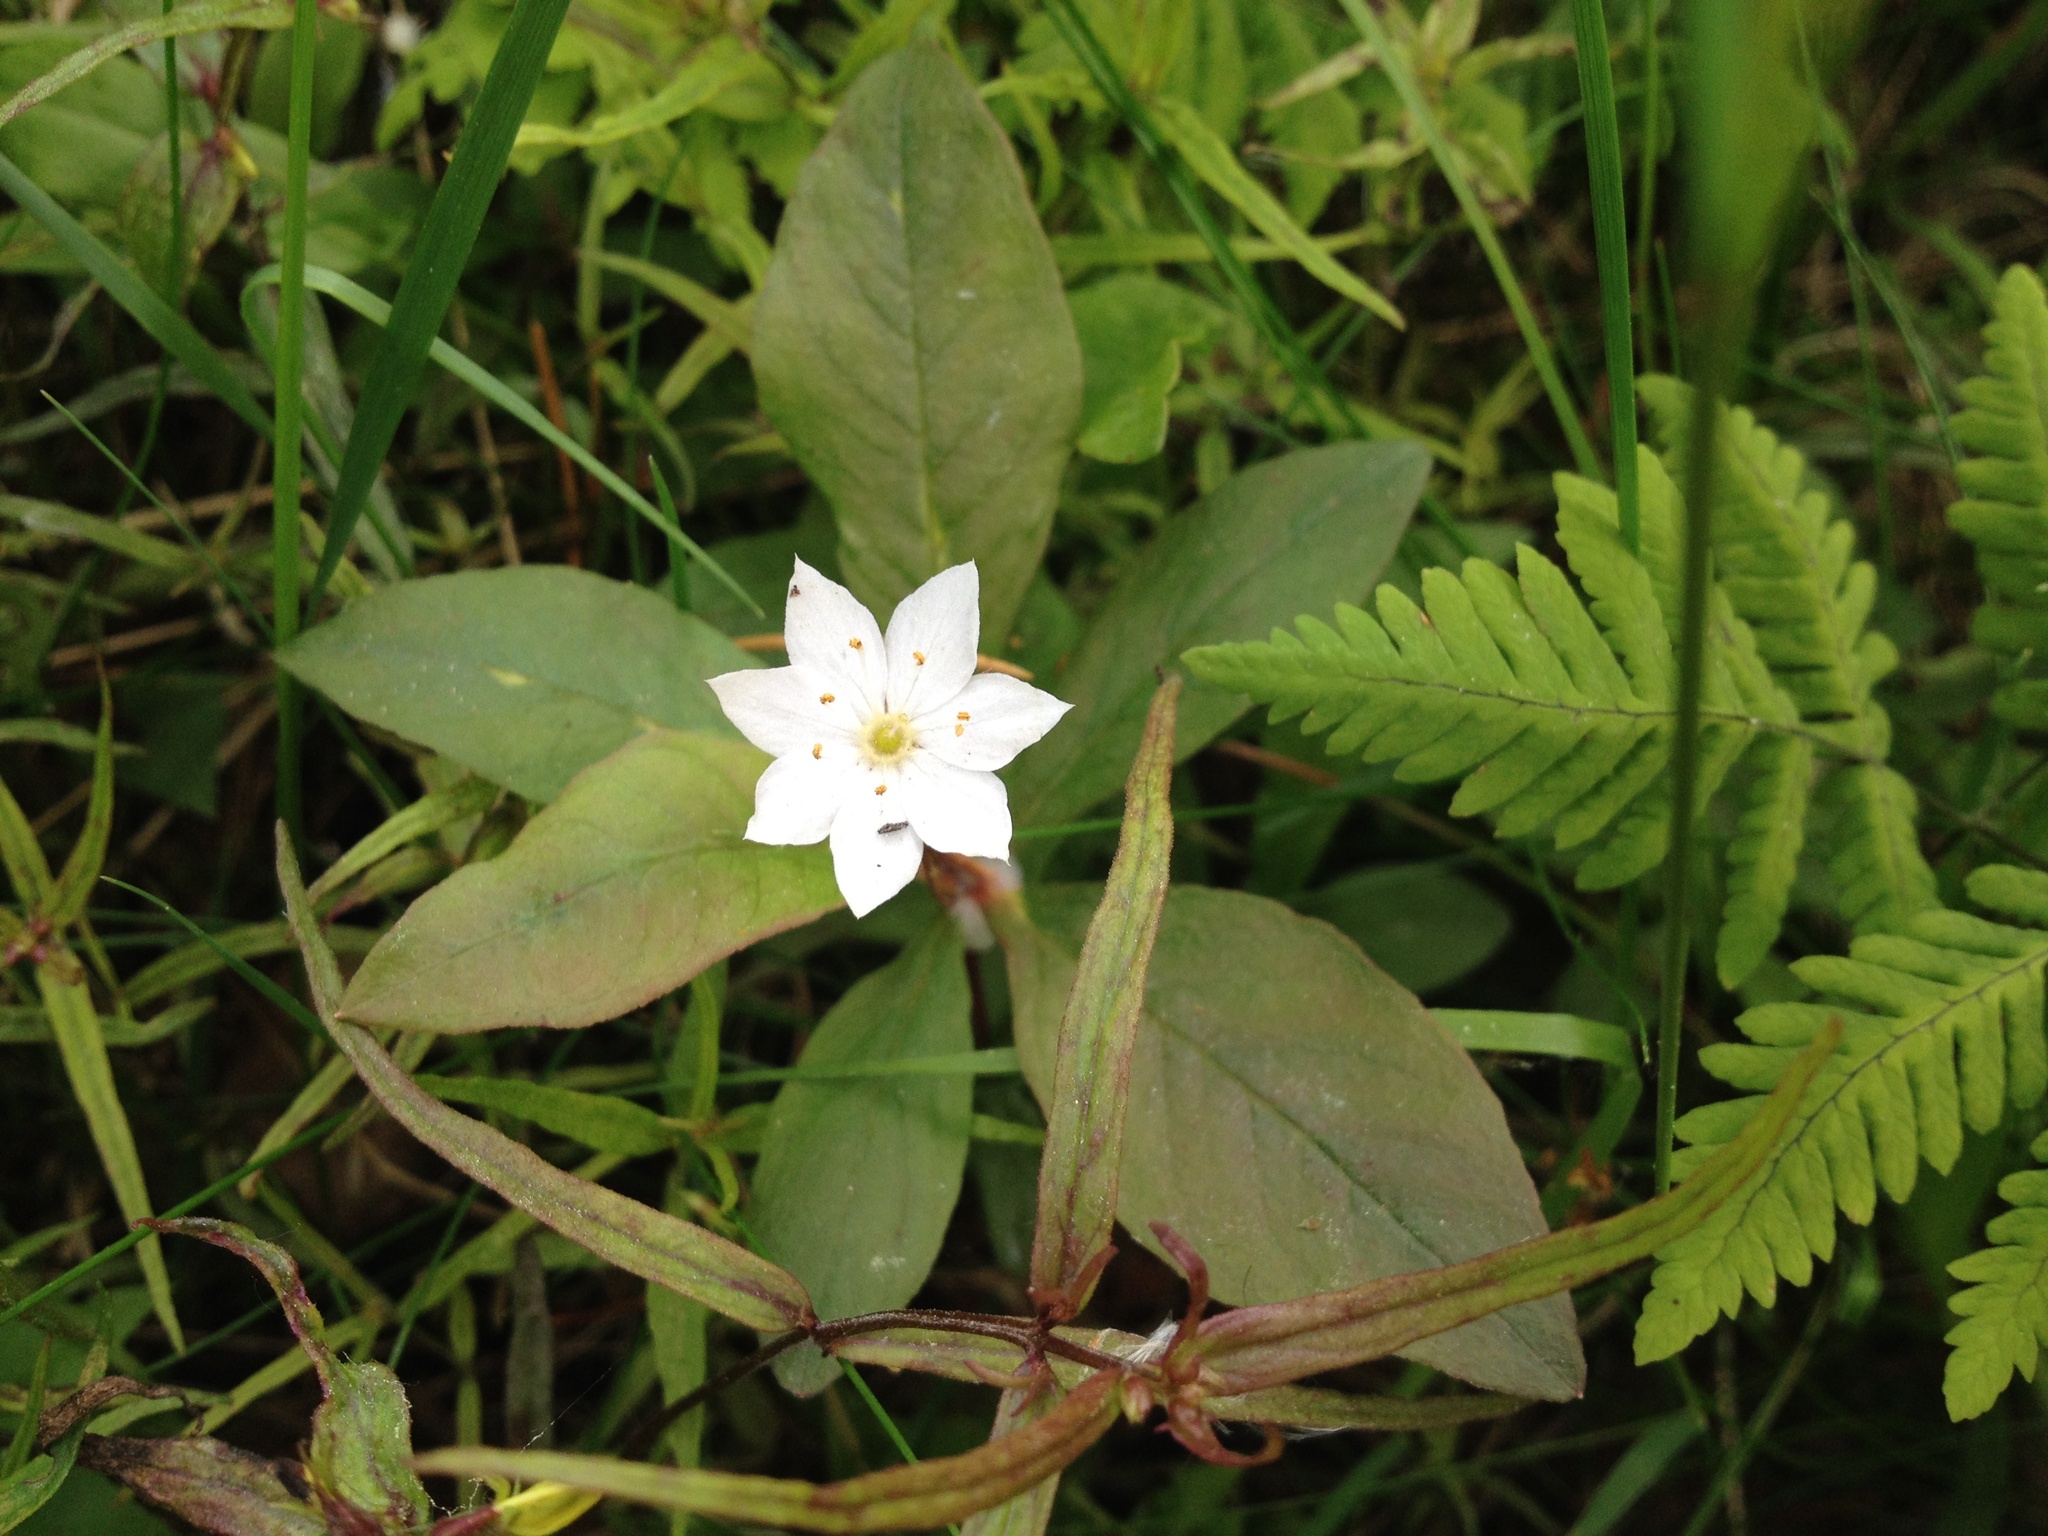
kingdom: Plantae
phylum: Tracheophyta
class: Magnoliopsida
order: Ericales
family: Primulaceae
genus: Lysimachia
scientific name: Lysimachia europaea
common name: Arctic starflower
